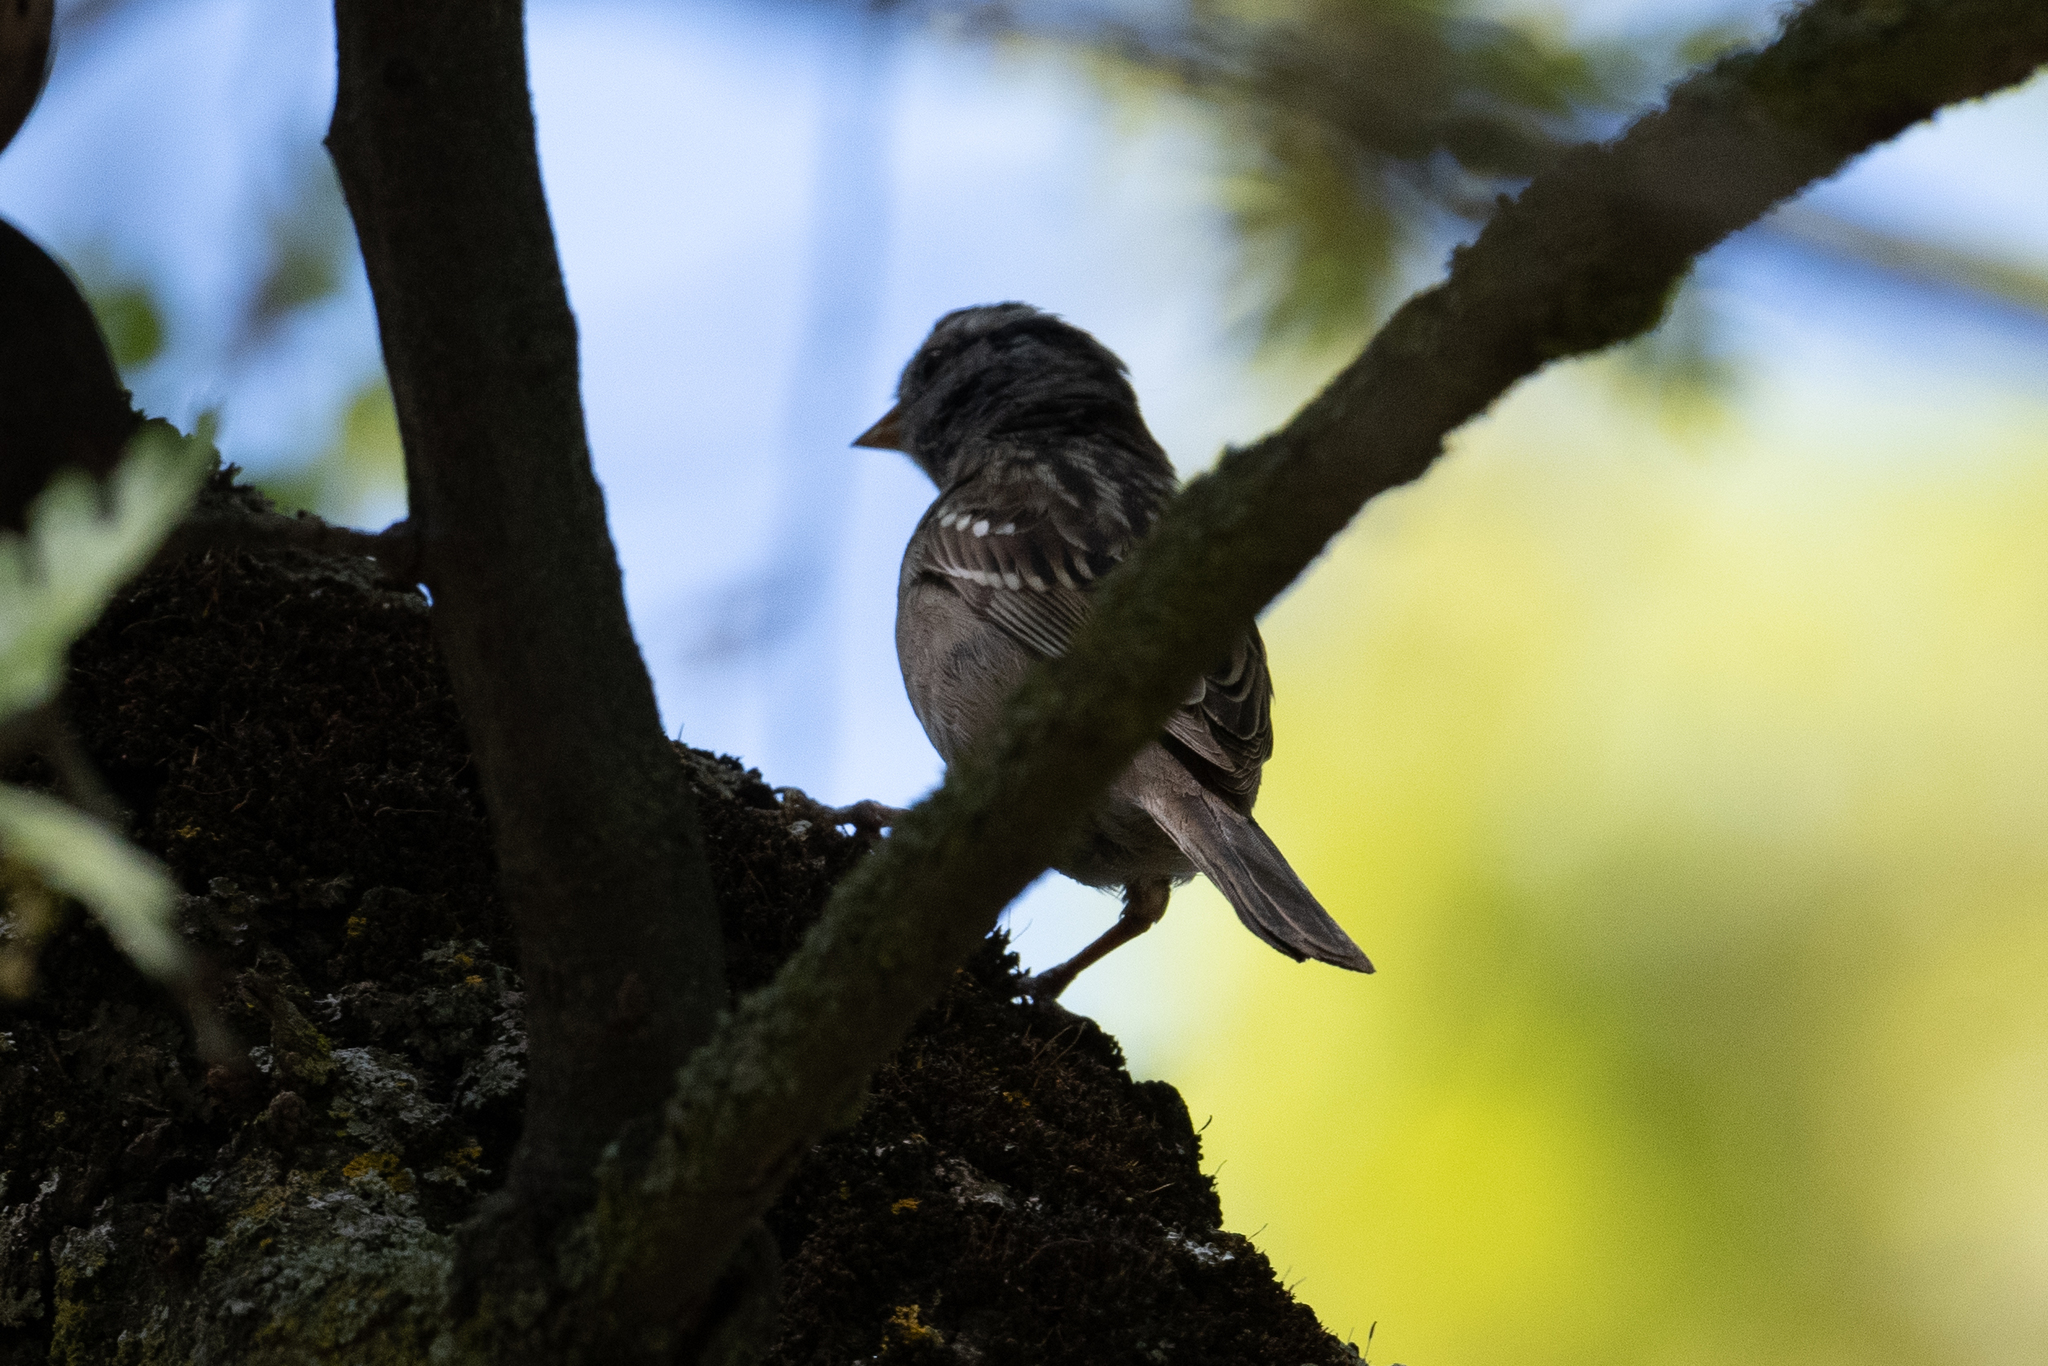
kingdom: Animalia
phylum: Chordata
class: Aves
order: Passeriformes
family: Passerellidae
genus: Zonotrichia
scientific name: Zonotrichia leucophrys
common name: White-crowned sparrow
